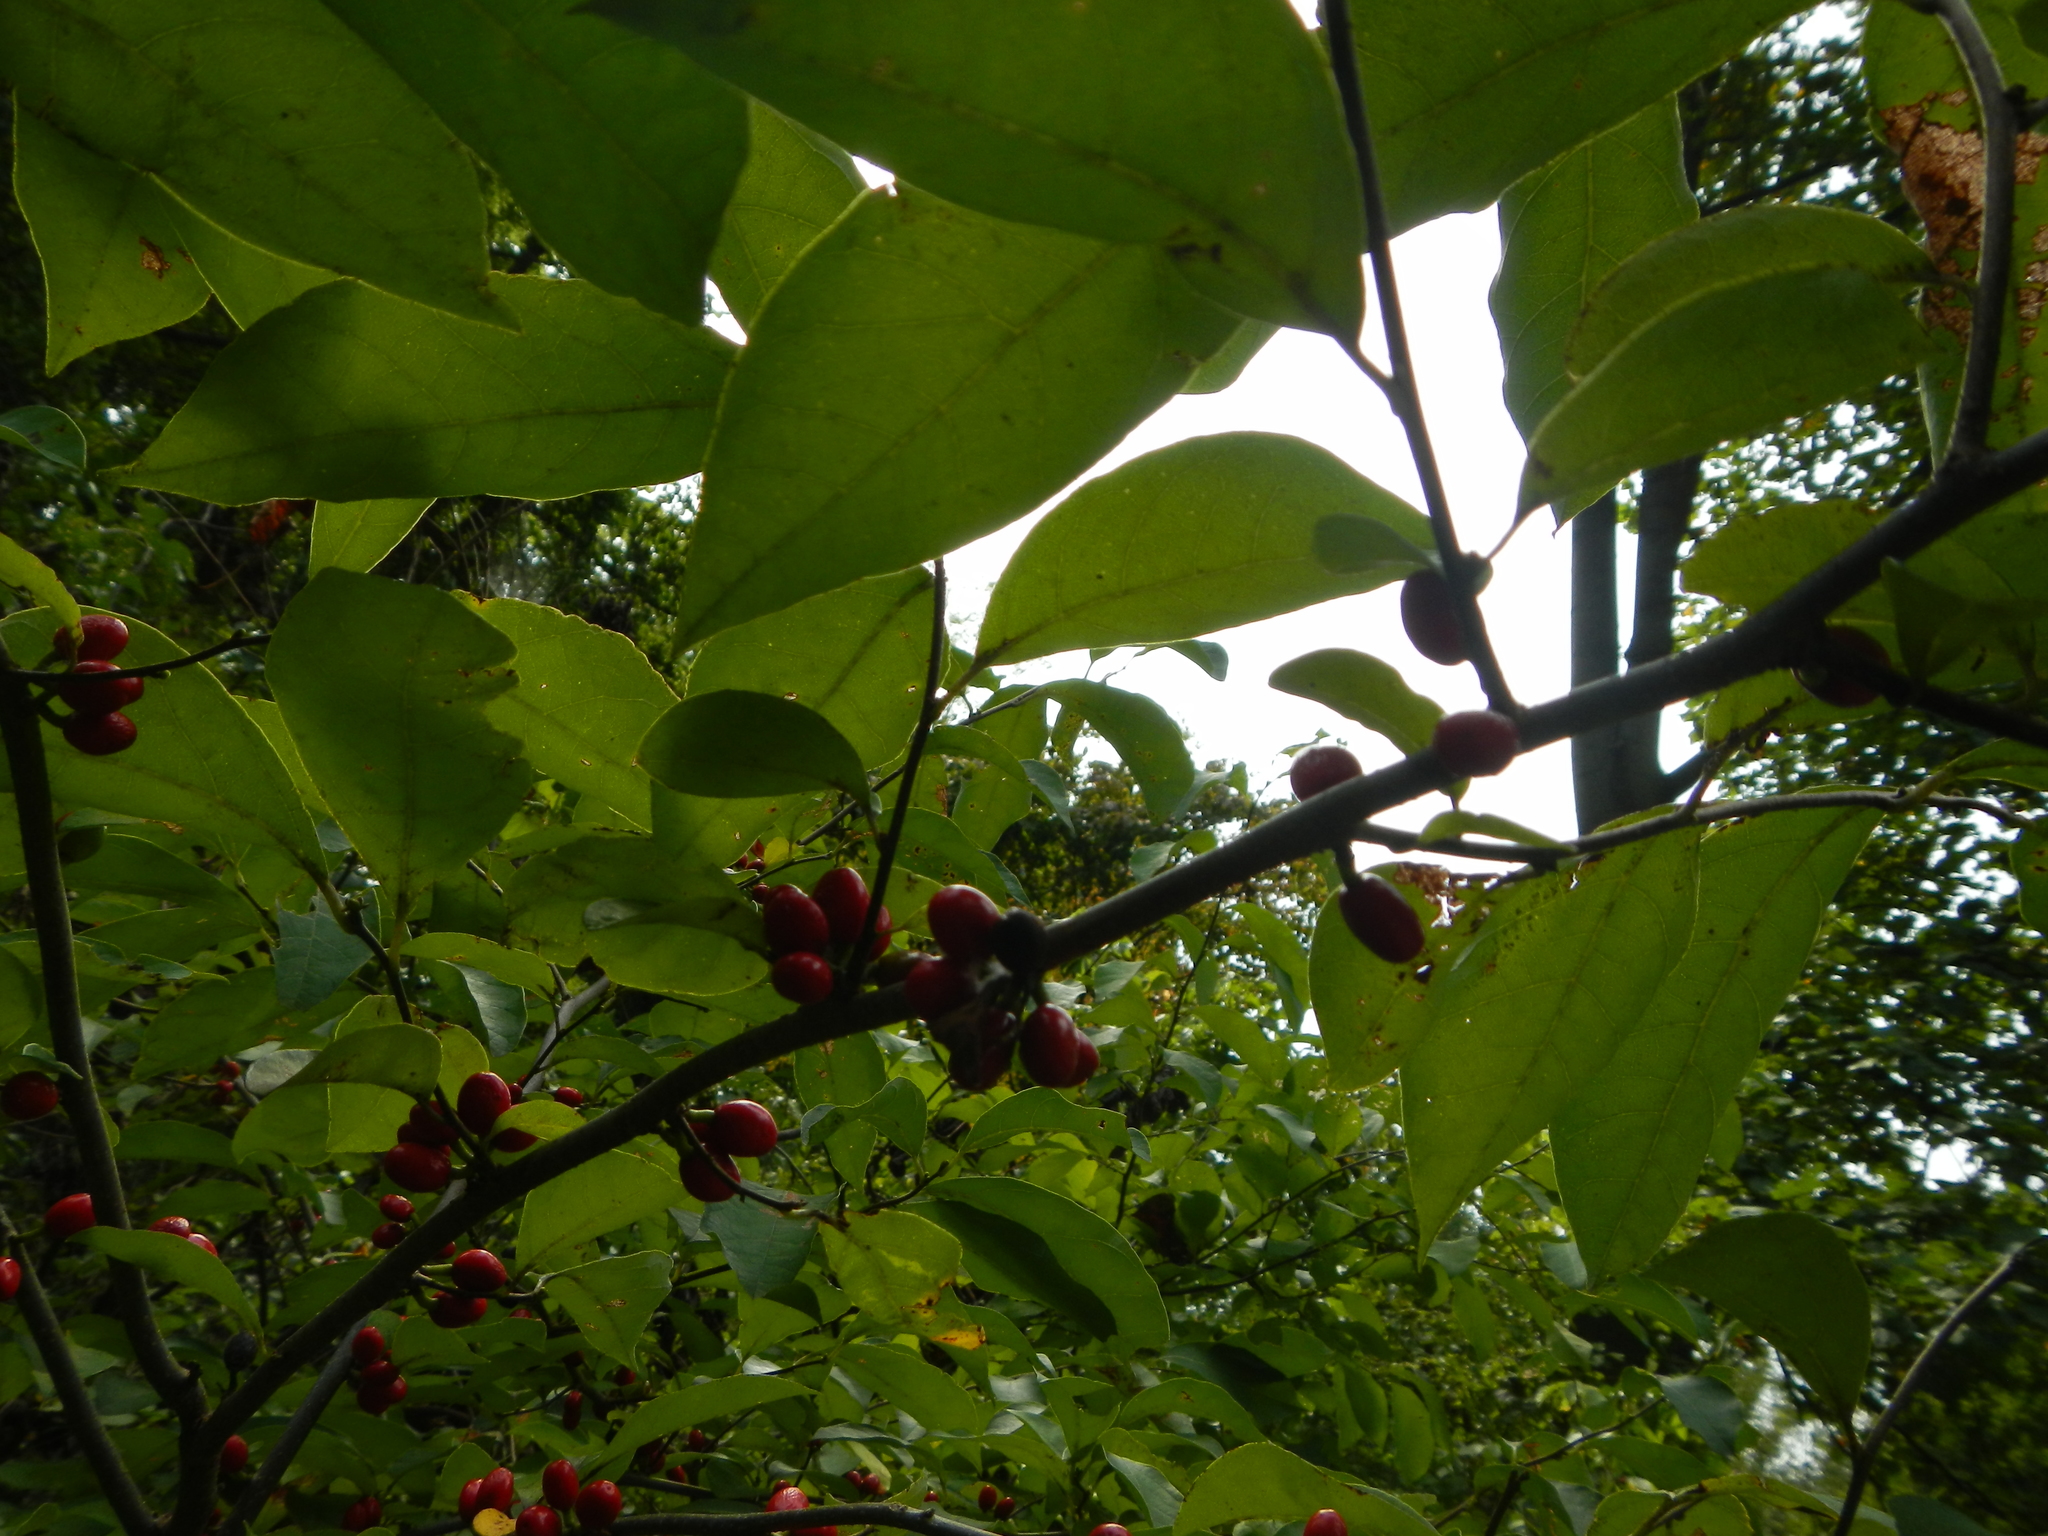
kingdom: Plantae
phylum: Tracheophyta
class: Magnoliopsida
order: Laurales
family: Lauraceae
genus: Lindera
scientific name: Lindera benzoin
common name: Spicebush
